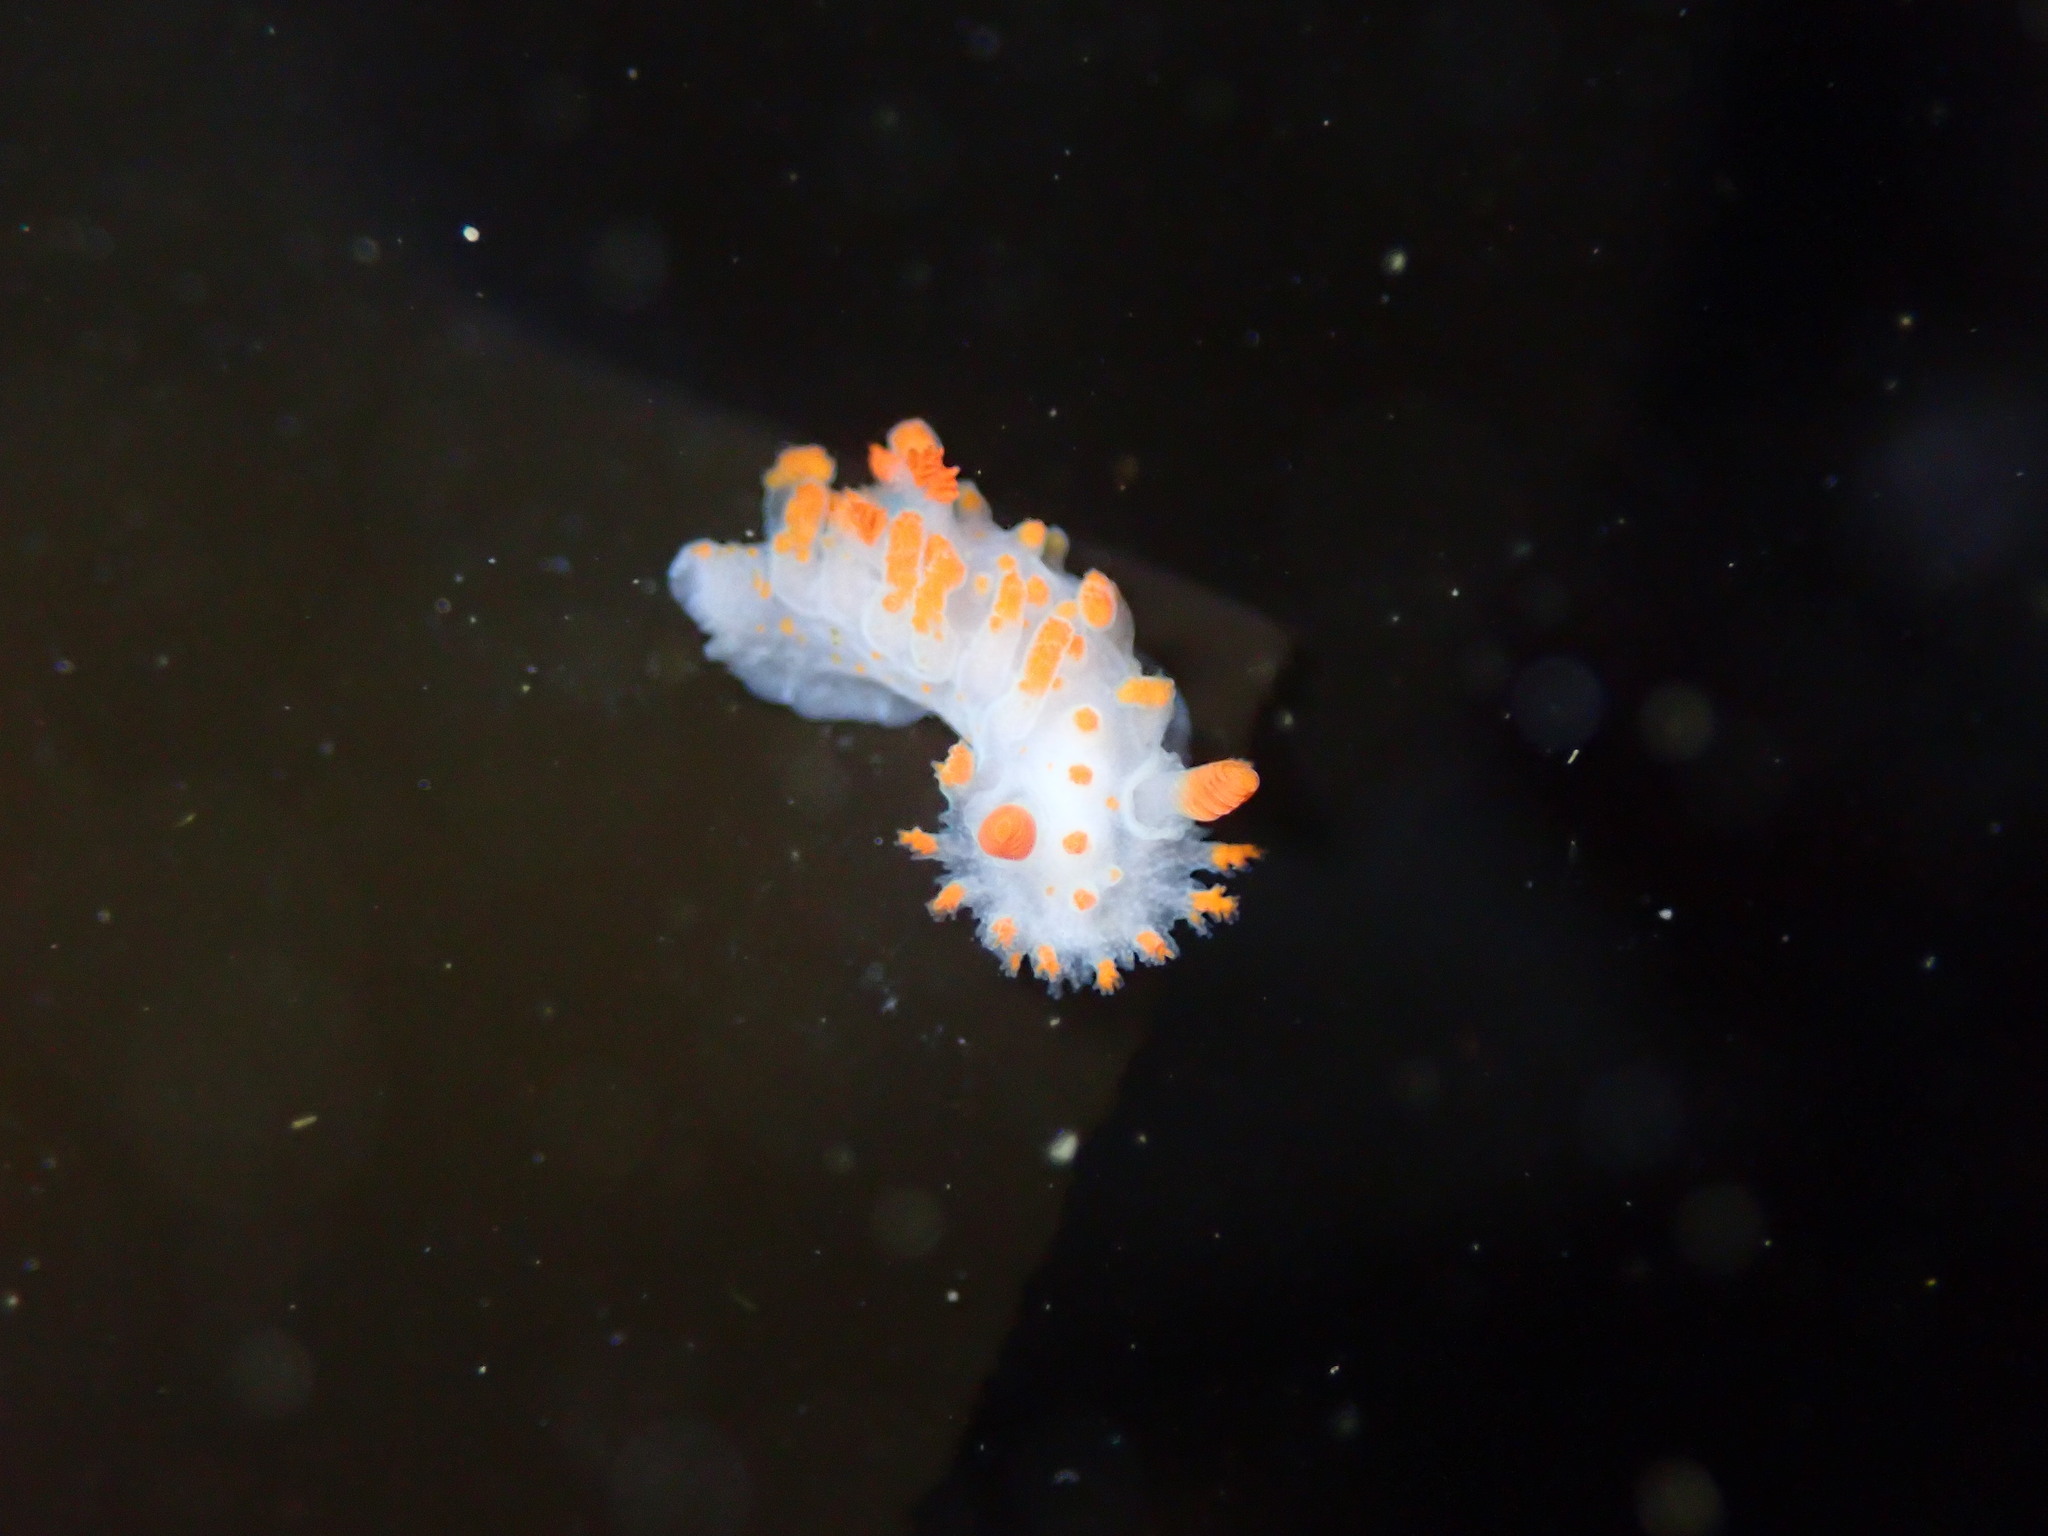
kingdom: Animalia
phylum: Mollusca
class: Gastropoda
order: Nudibranchia
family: Polyceridae
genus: Triopha
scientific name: Triopha catalinae
